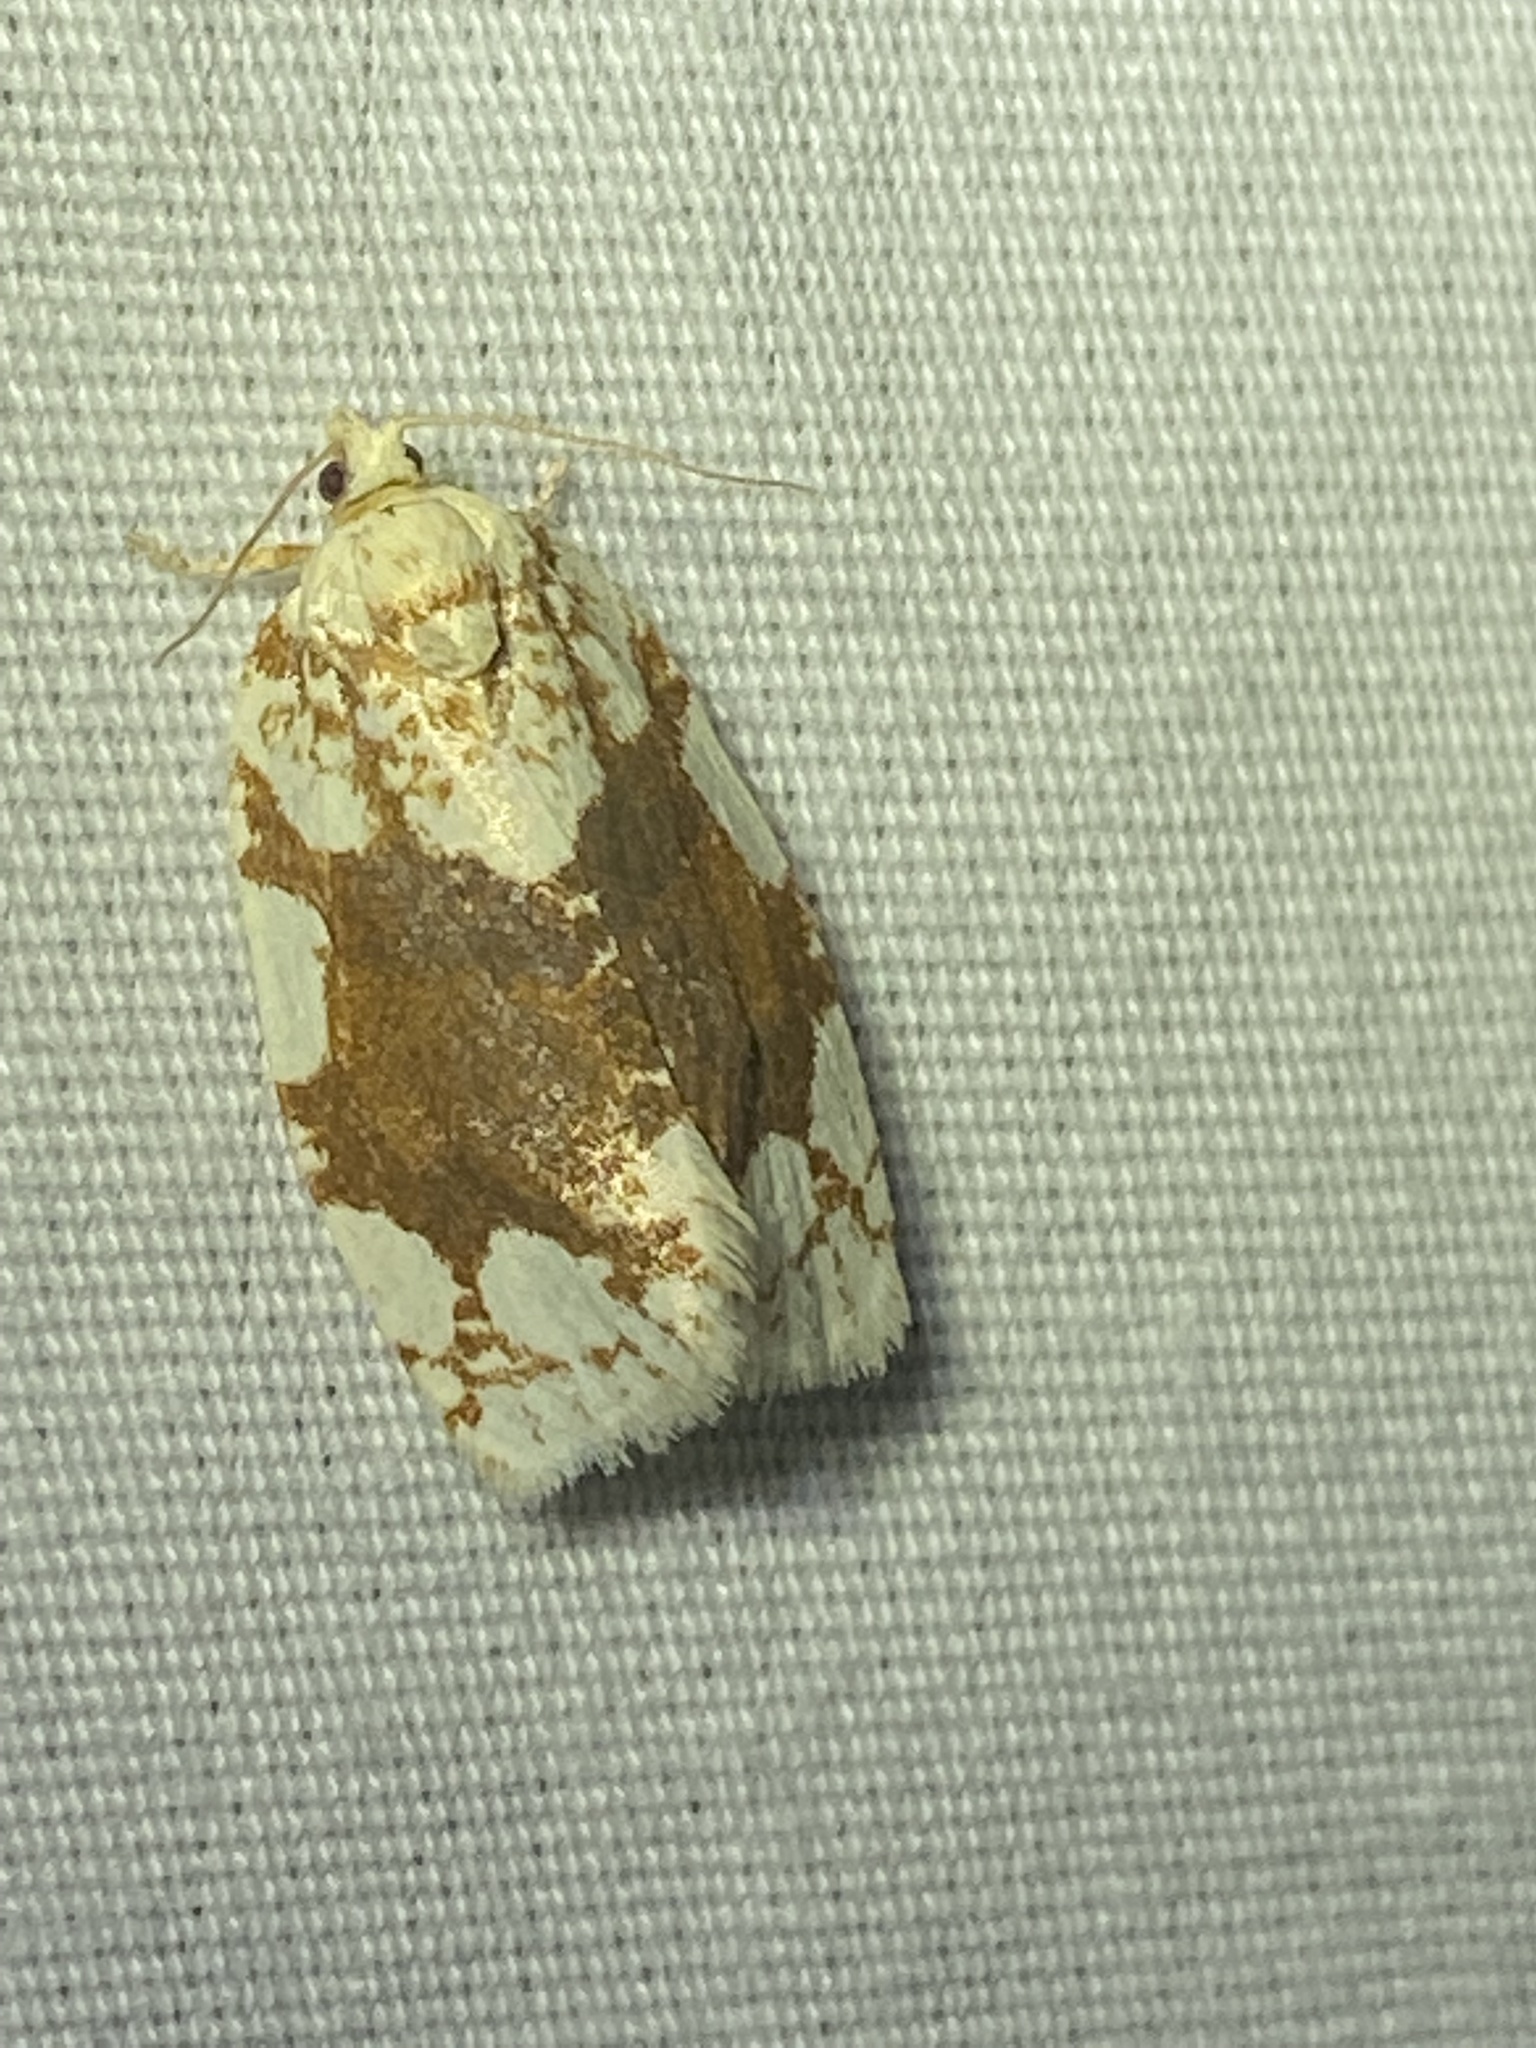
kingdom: Animalia
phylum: Arthropoda
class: Insecta
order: Lepidoptera
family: Tortricidae
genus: Argyrotaenia
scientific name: Argyrotaenia alisellana
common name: White-spotted leafroller moth
